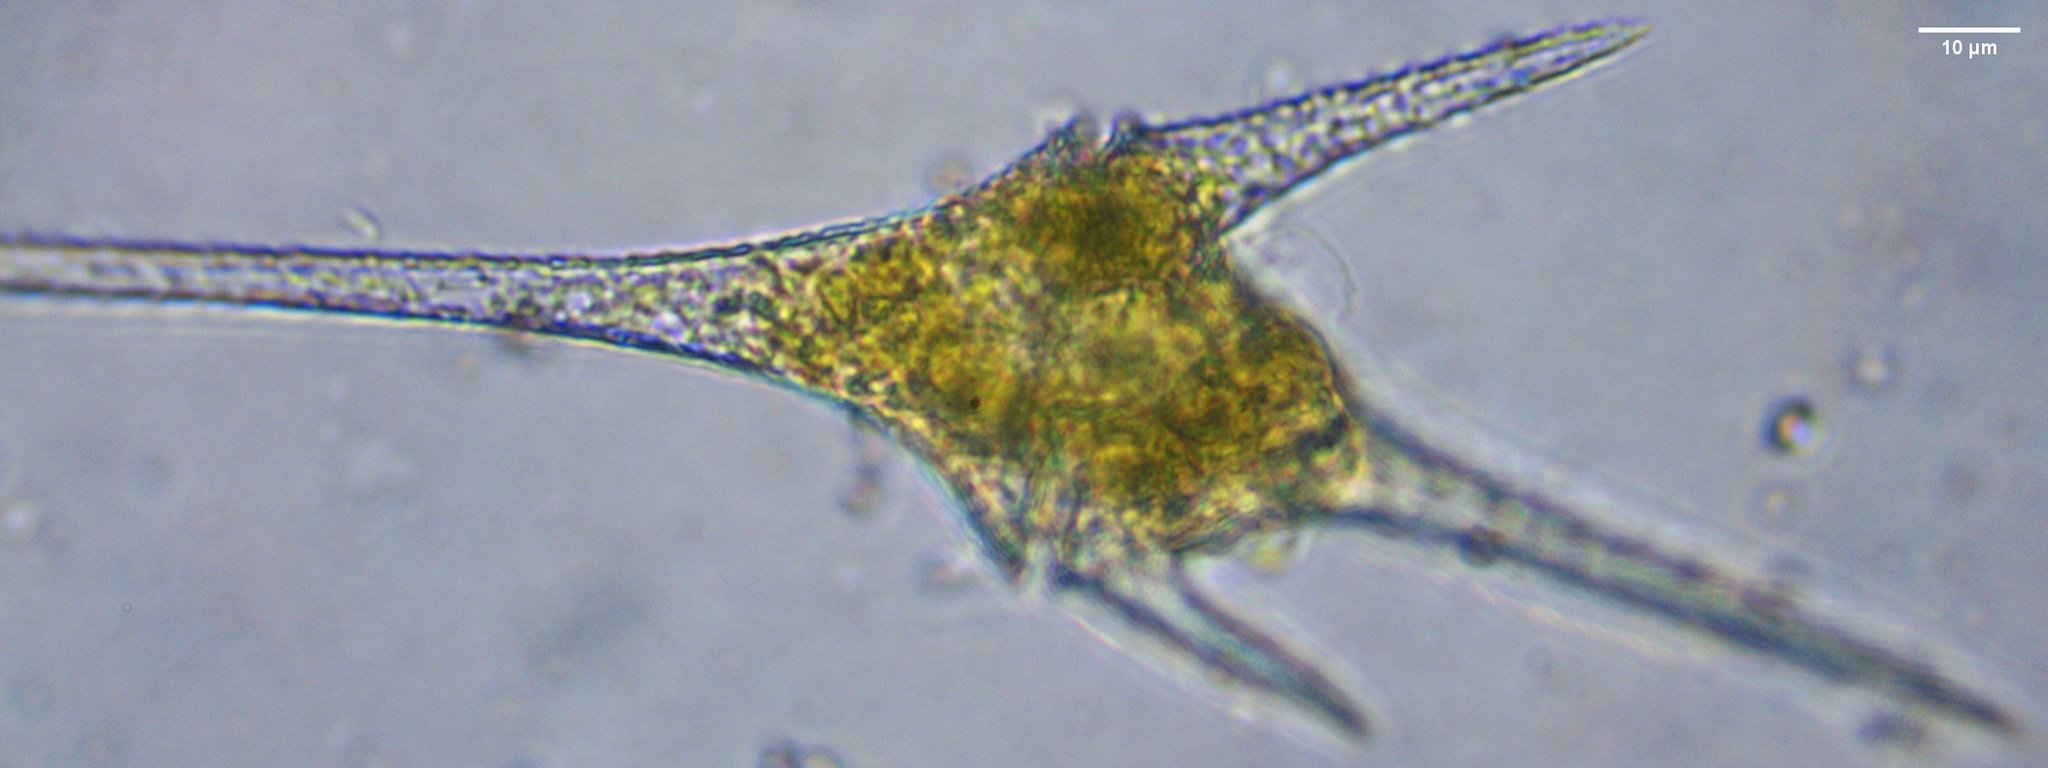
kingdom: Chromista
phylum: Myzozoa
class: Dinophyceae
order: Gonyaulacales
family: Ceratiaceae
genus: Ceratium
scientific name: Ceratium hirundinella
